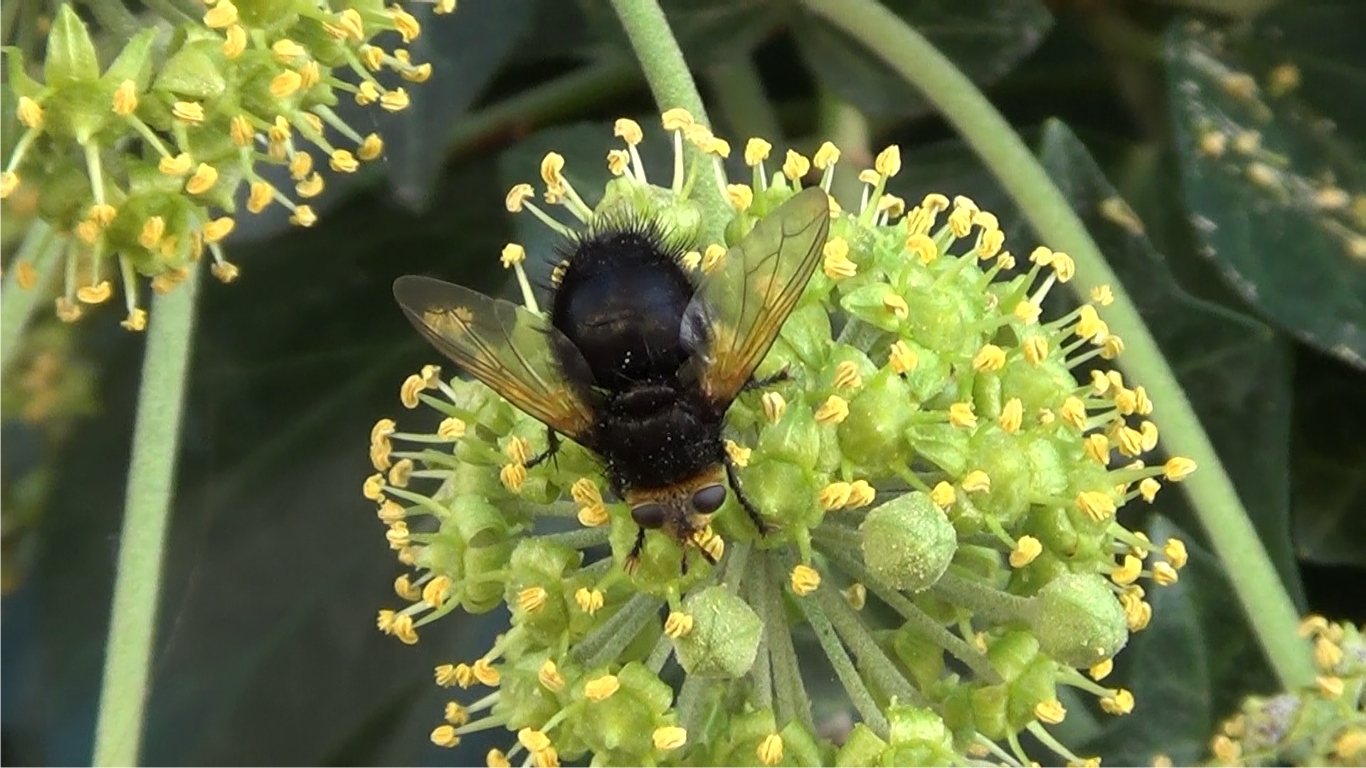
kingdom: Animalia
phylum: Arthropoda
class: Insecta
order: Diptera
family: Tachinidae
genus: Tachina
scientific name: Tachina grossa
